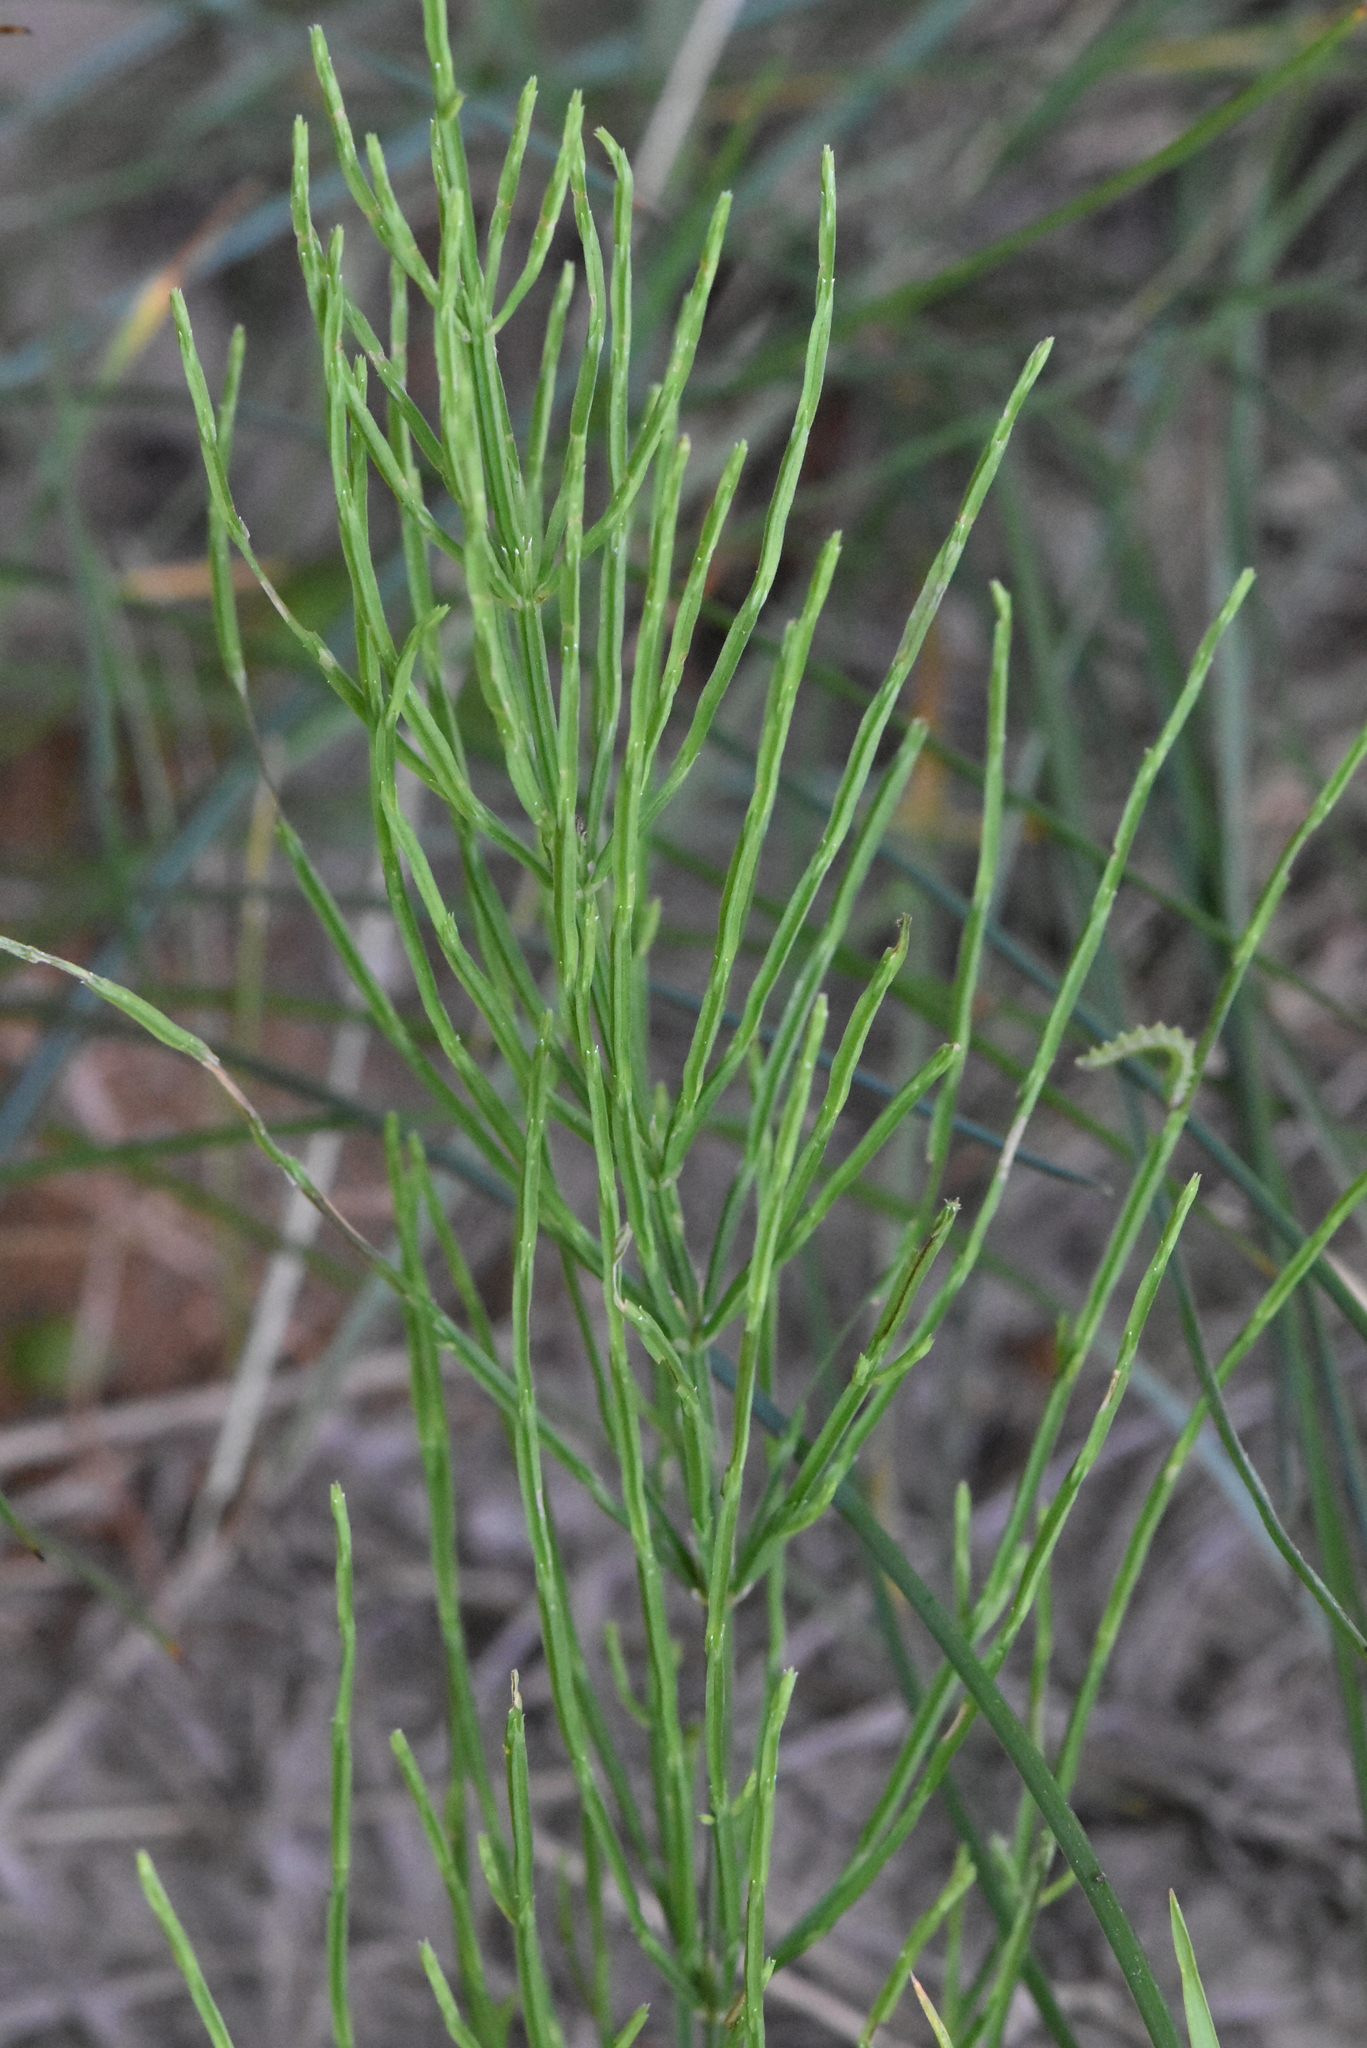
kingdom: Plantae
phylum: Tracheophyta
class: Polypodiopsida
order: Equisetales
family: Equisetaceae
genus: Equisetum
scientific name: Equisetum arvense
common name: Field horsetail
